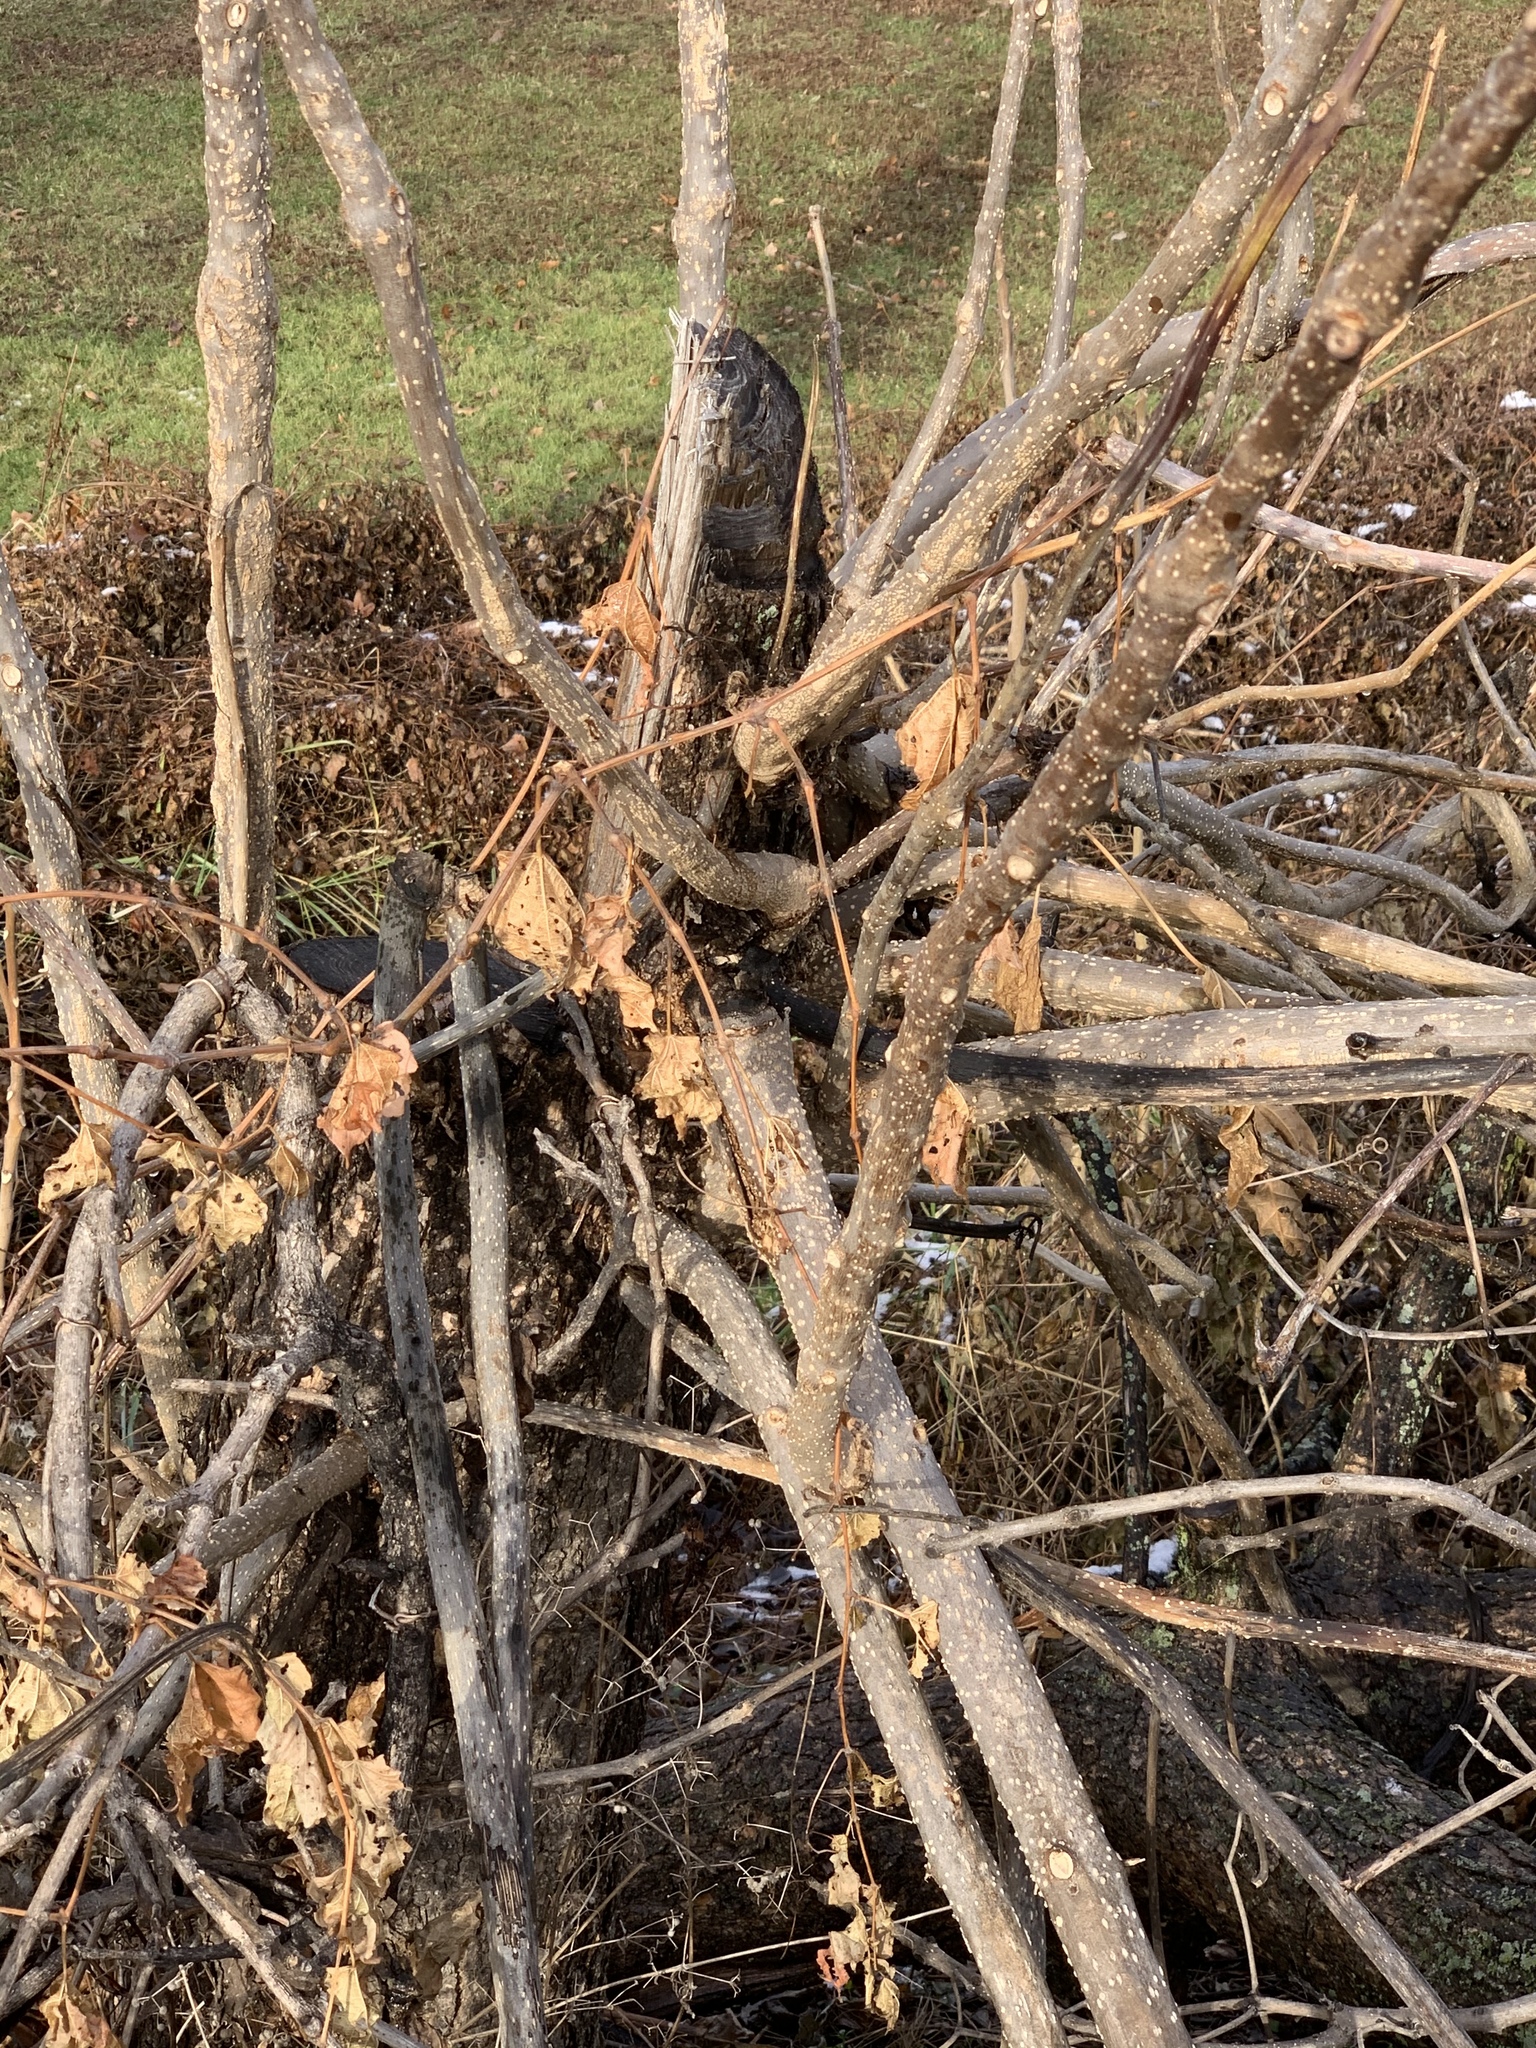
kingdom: Plantae
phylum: Tracheophyta
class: Magnoliopsida
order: Sapindales
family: Simaroubaceae
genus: Ailanthus
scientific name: Ailanthus altissima
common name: Tree-of-heaven
